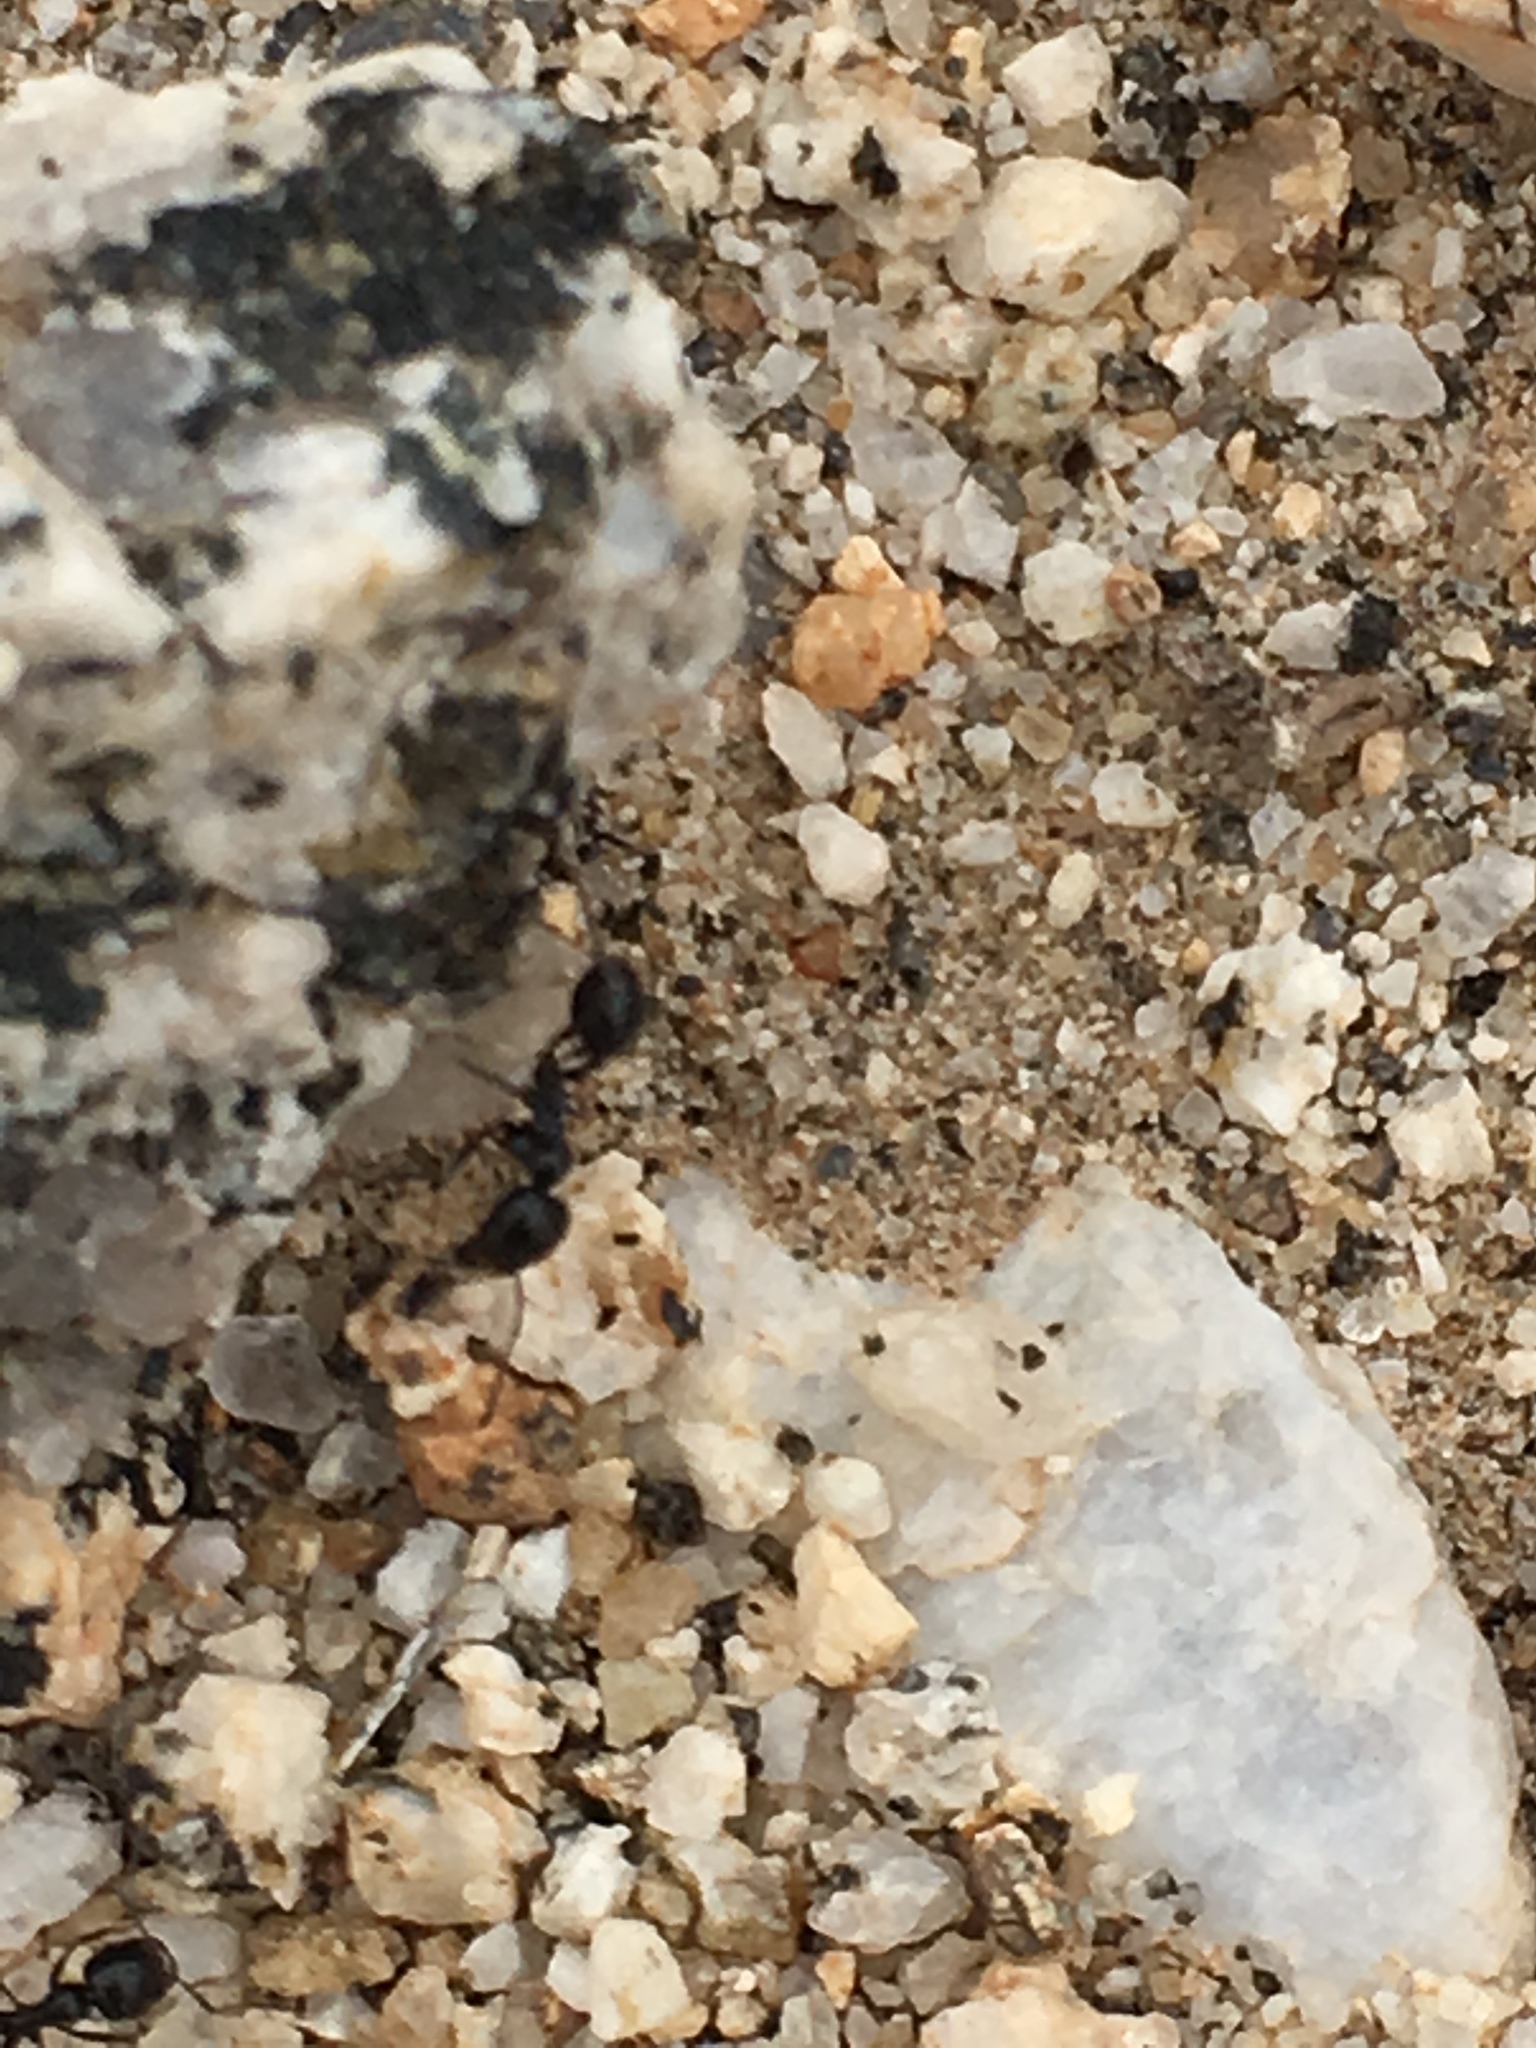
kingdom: Animalia
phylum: Arthropoda
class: Insecta
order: Hymenoptera
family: Formicidae
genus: Messor
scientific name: Messor pergandei
